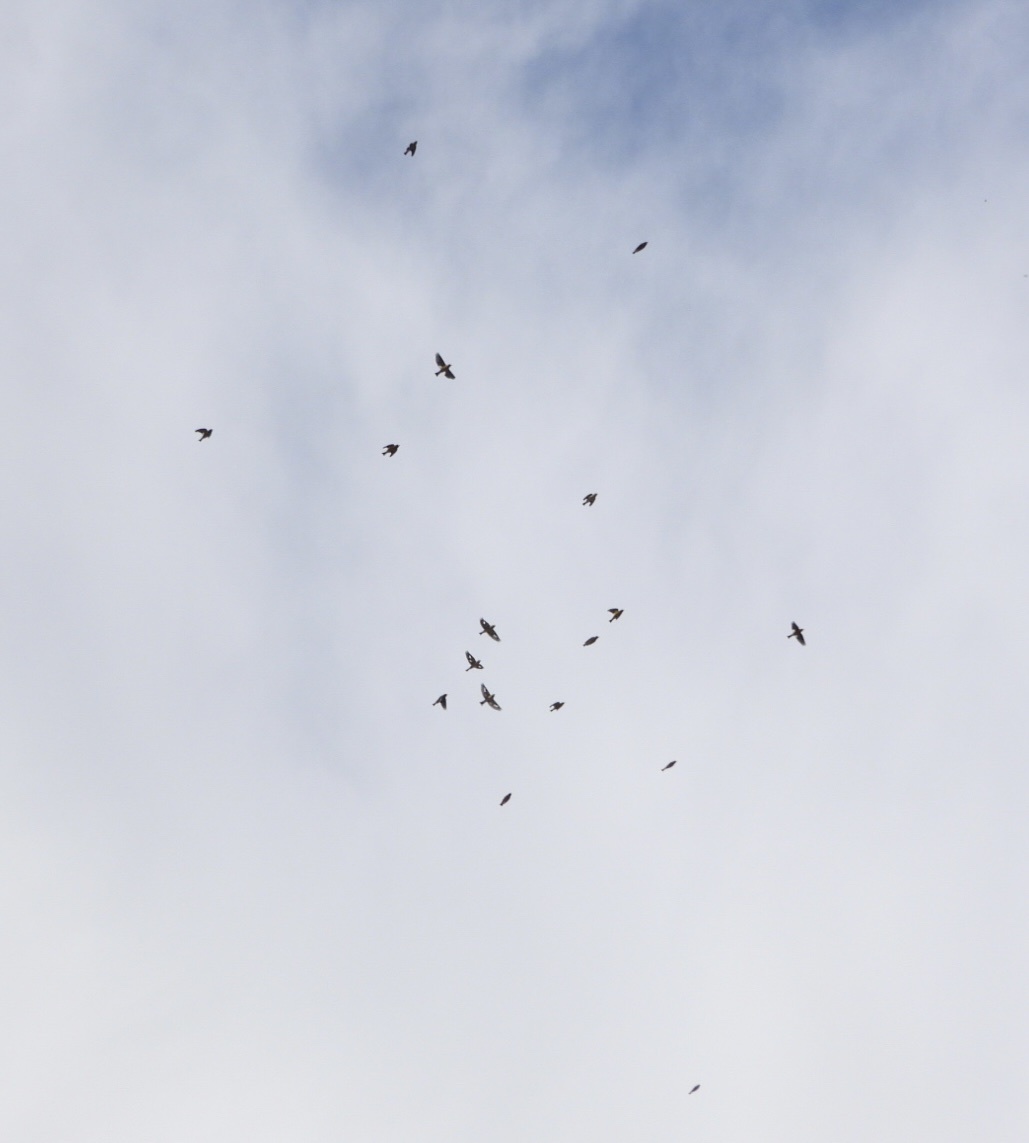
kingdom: Animalia
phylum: Chordata
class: Aves
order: Passeriformes
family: Fringillidae
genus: Hesperiphona
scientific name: Hesperiphona vespertina
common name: Evening grosbeak
